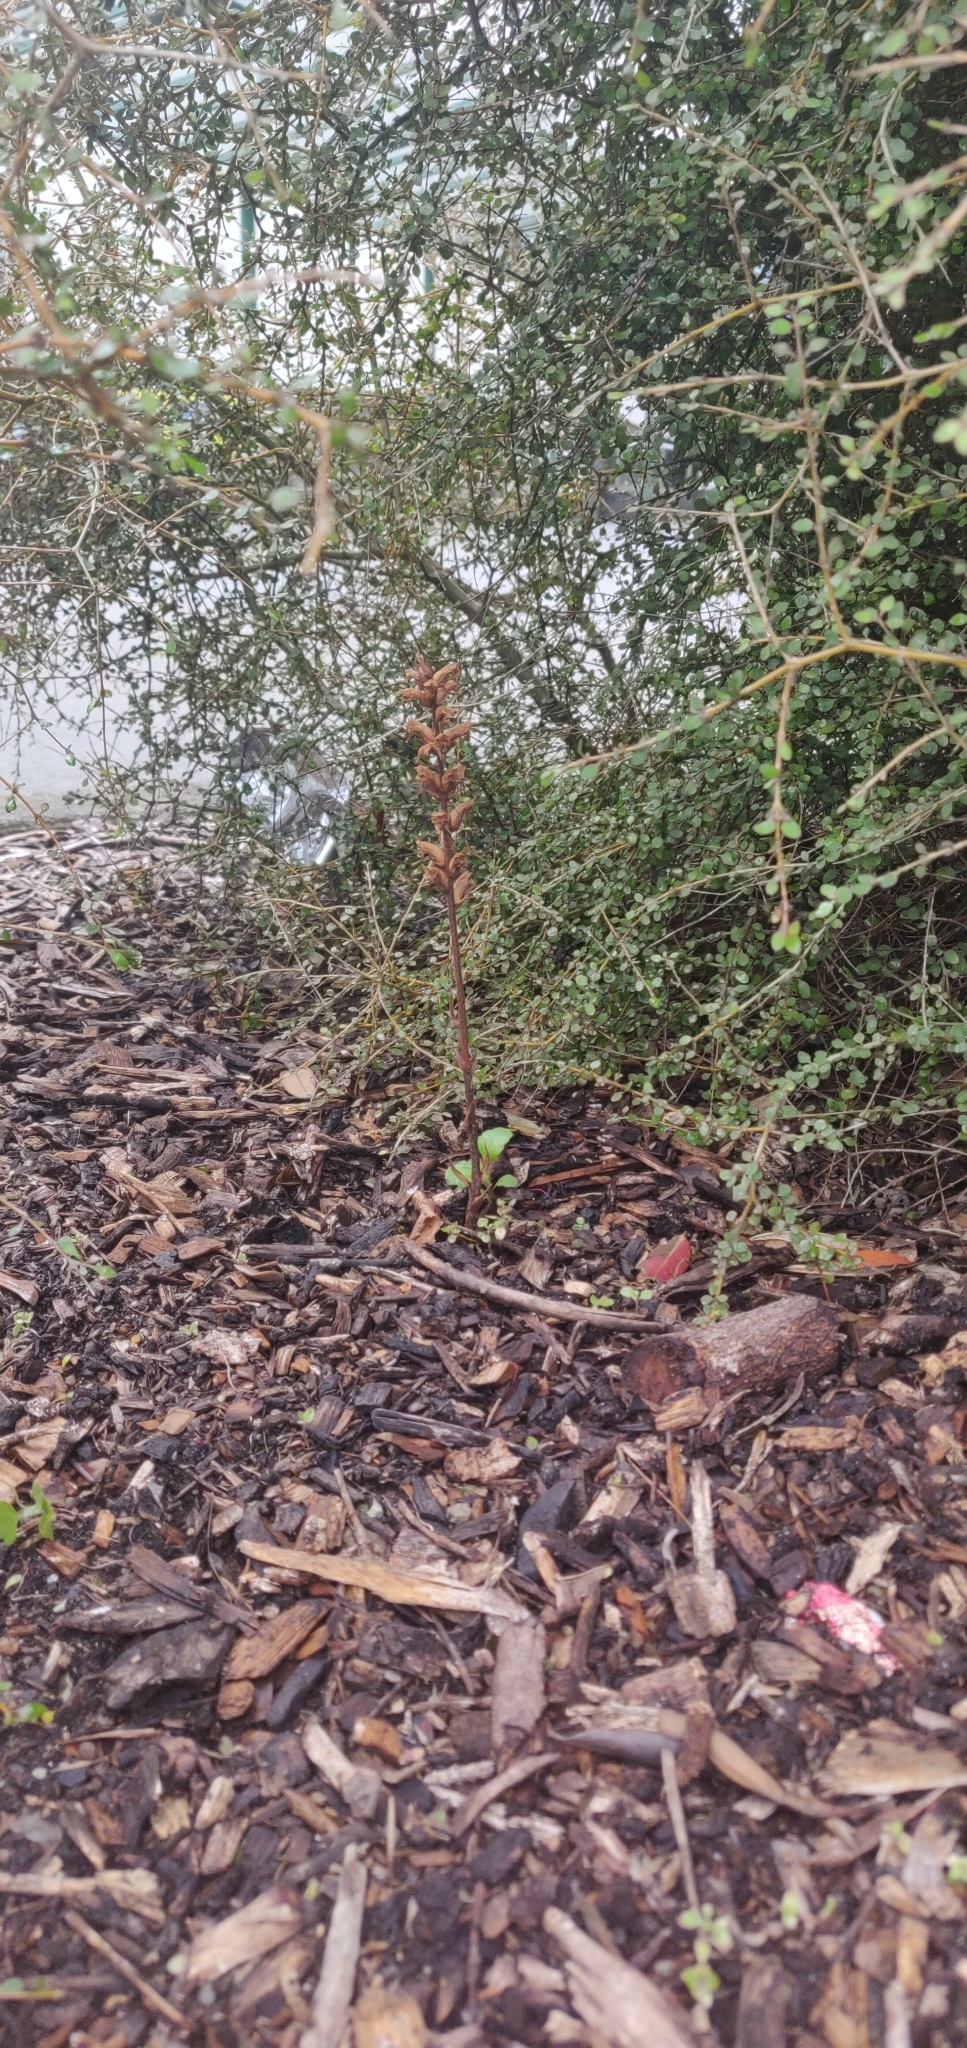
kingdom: Plantae
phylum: Tracheophyta
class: Magnoliopsida
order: Lamiales
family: Orobanchaceae
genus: Orobanche
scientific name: Orobanche minor
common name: Common broomrape
